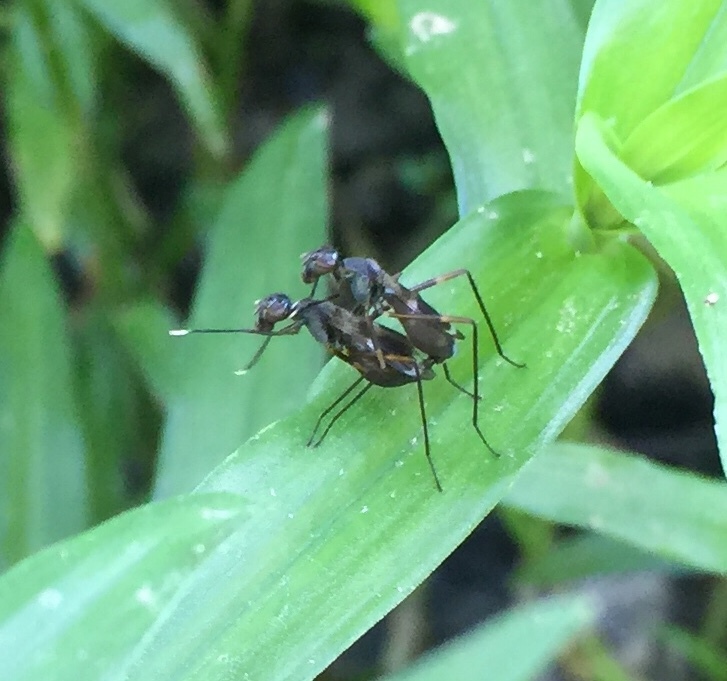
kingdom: Animalia
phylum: Arthropoda
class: Insecta
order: Diptera
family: Micropezidae
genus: Taeniaptera
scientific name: Taeniaptera trivittata
